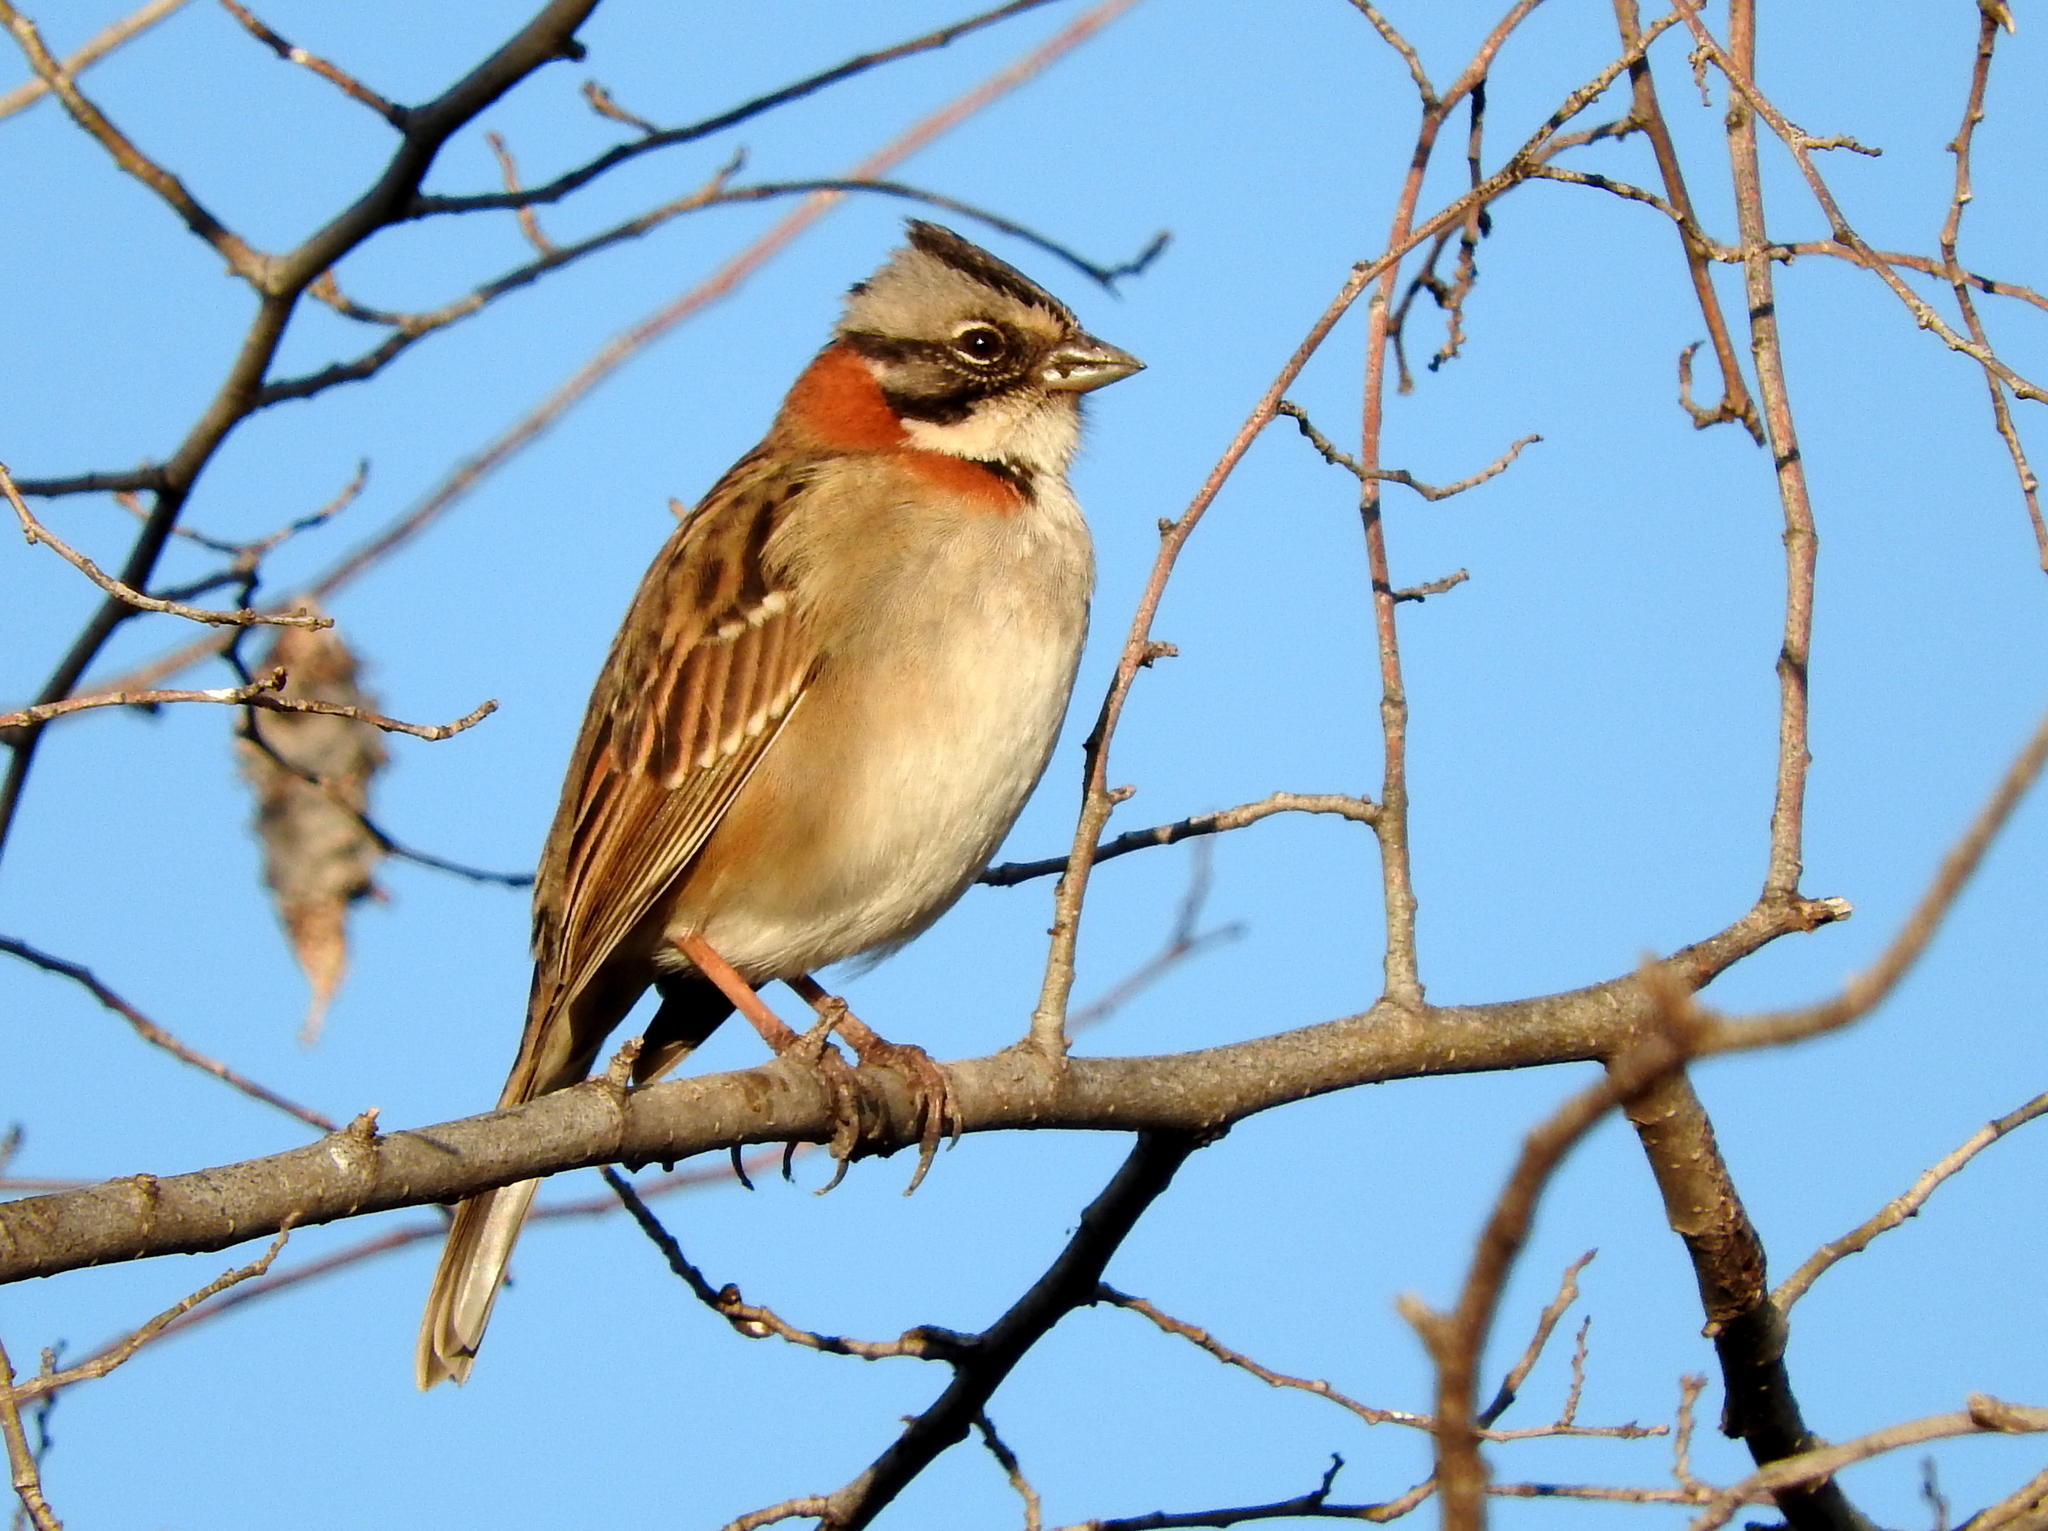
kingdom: Animalia
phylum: Chordata
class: Aves
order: Passeriformes
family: Passerellidae
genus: Zonotrichia
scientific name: Zonotrichia capensis
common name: Rufous-collared sparrow
